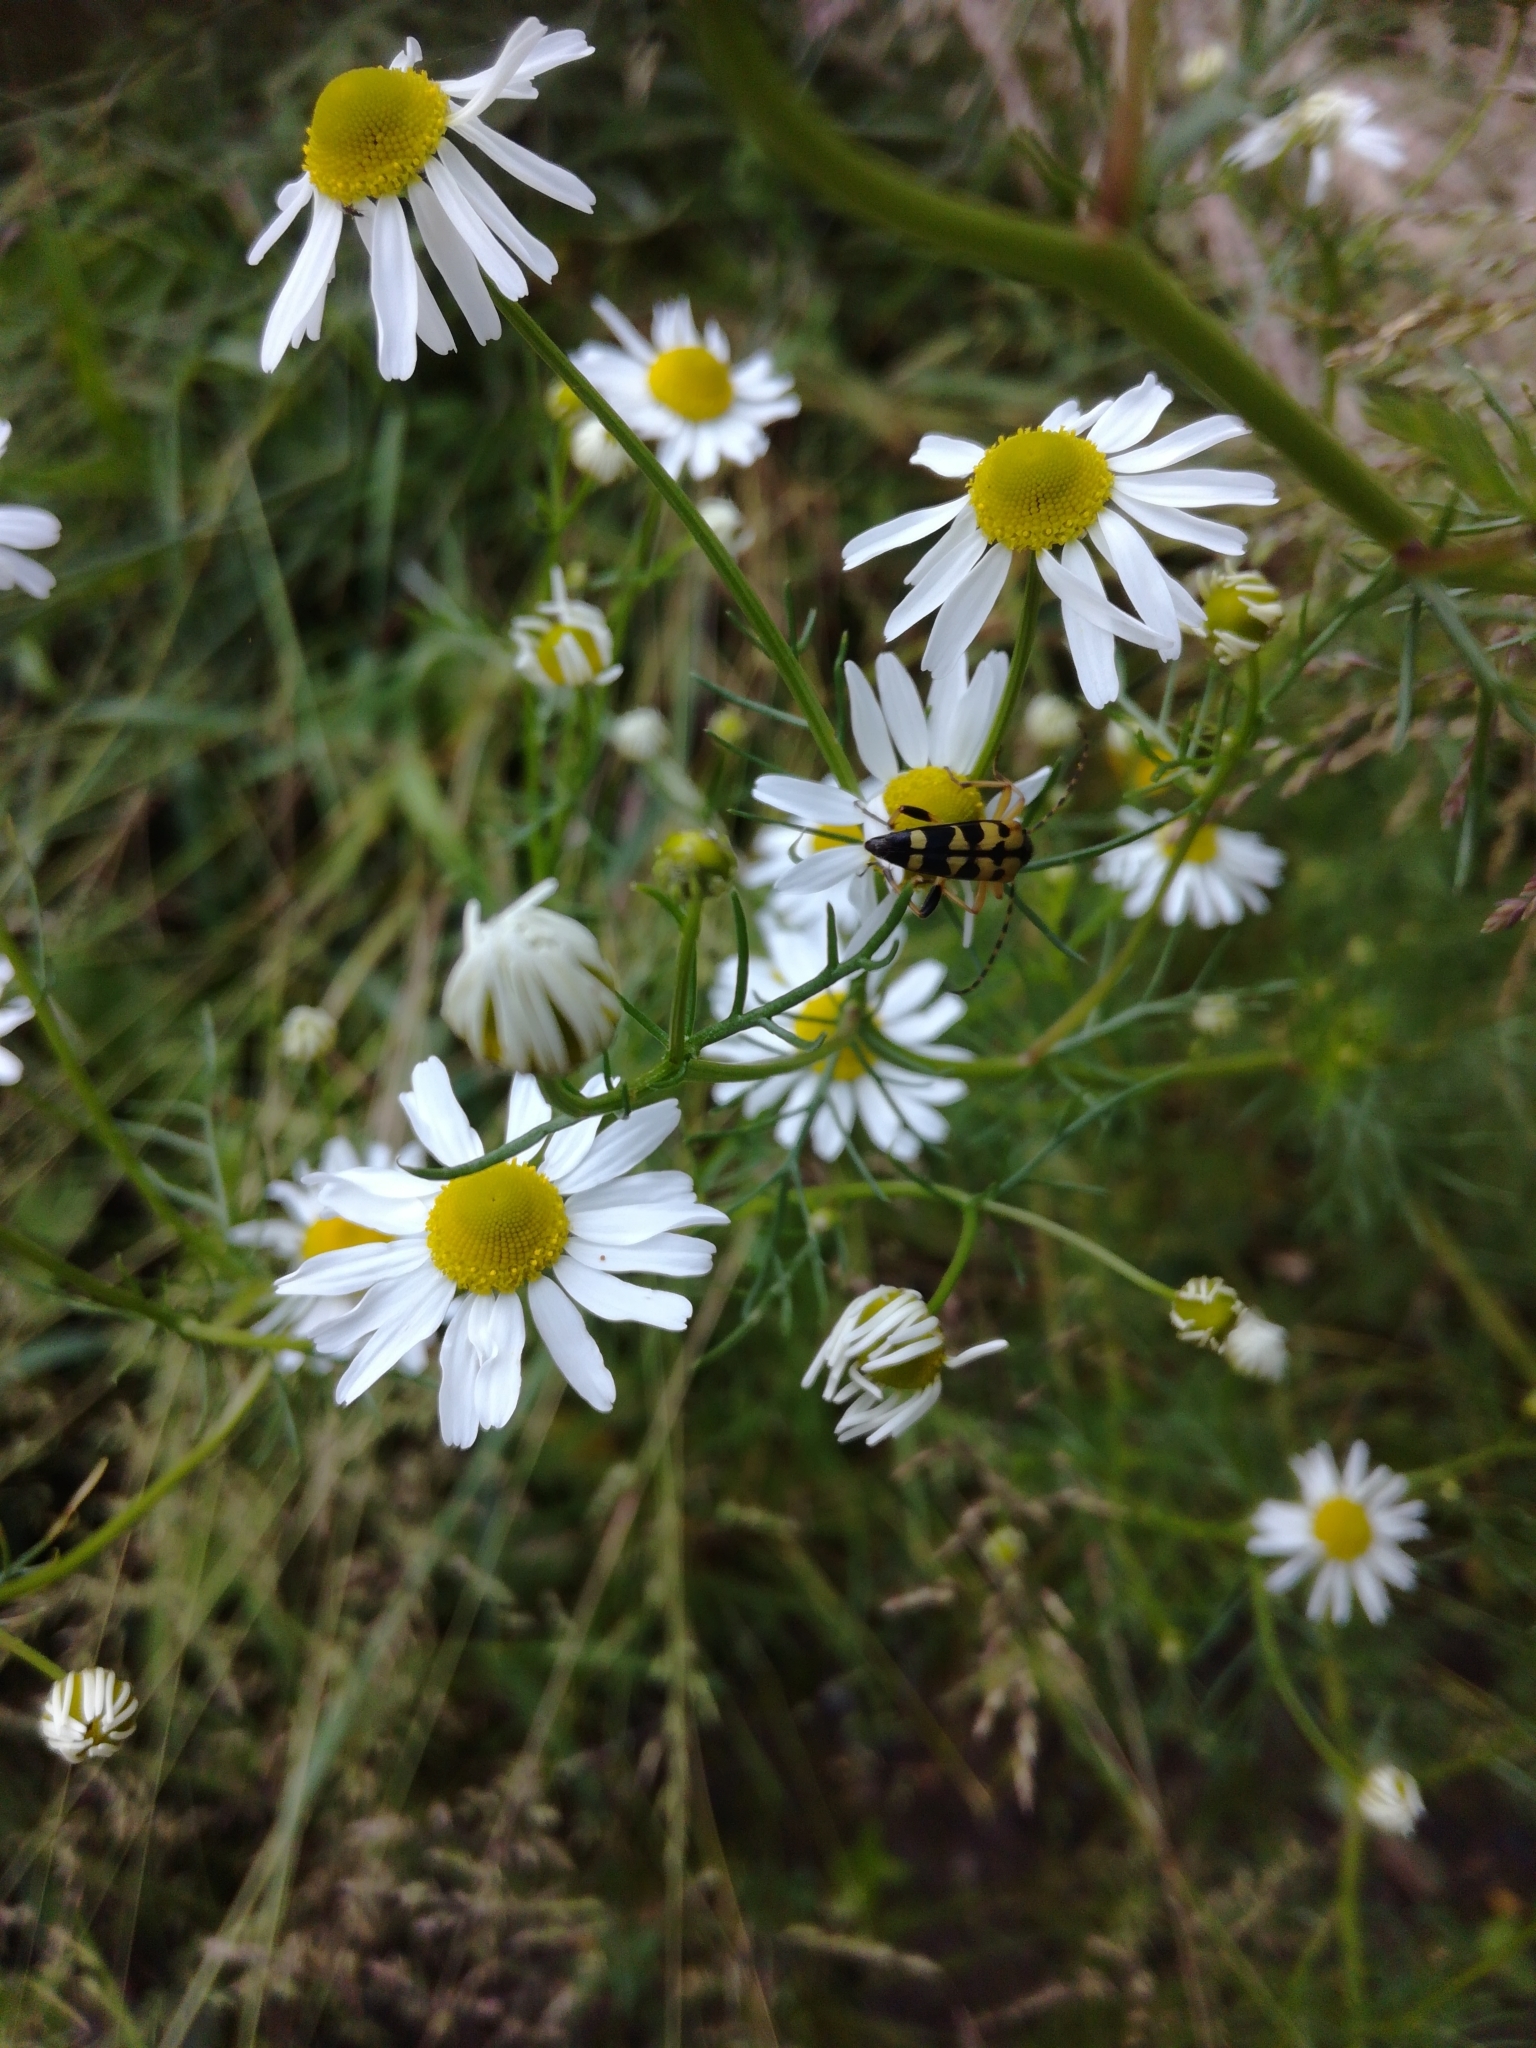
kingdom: Animalia
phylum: Arthropoda
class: Insecta
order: Coleoptera
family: Cerambycidae
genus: Rutpela
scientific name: Rutpela maculata
